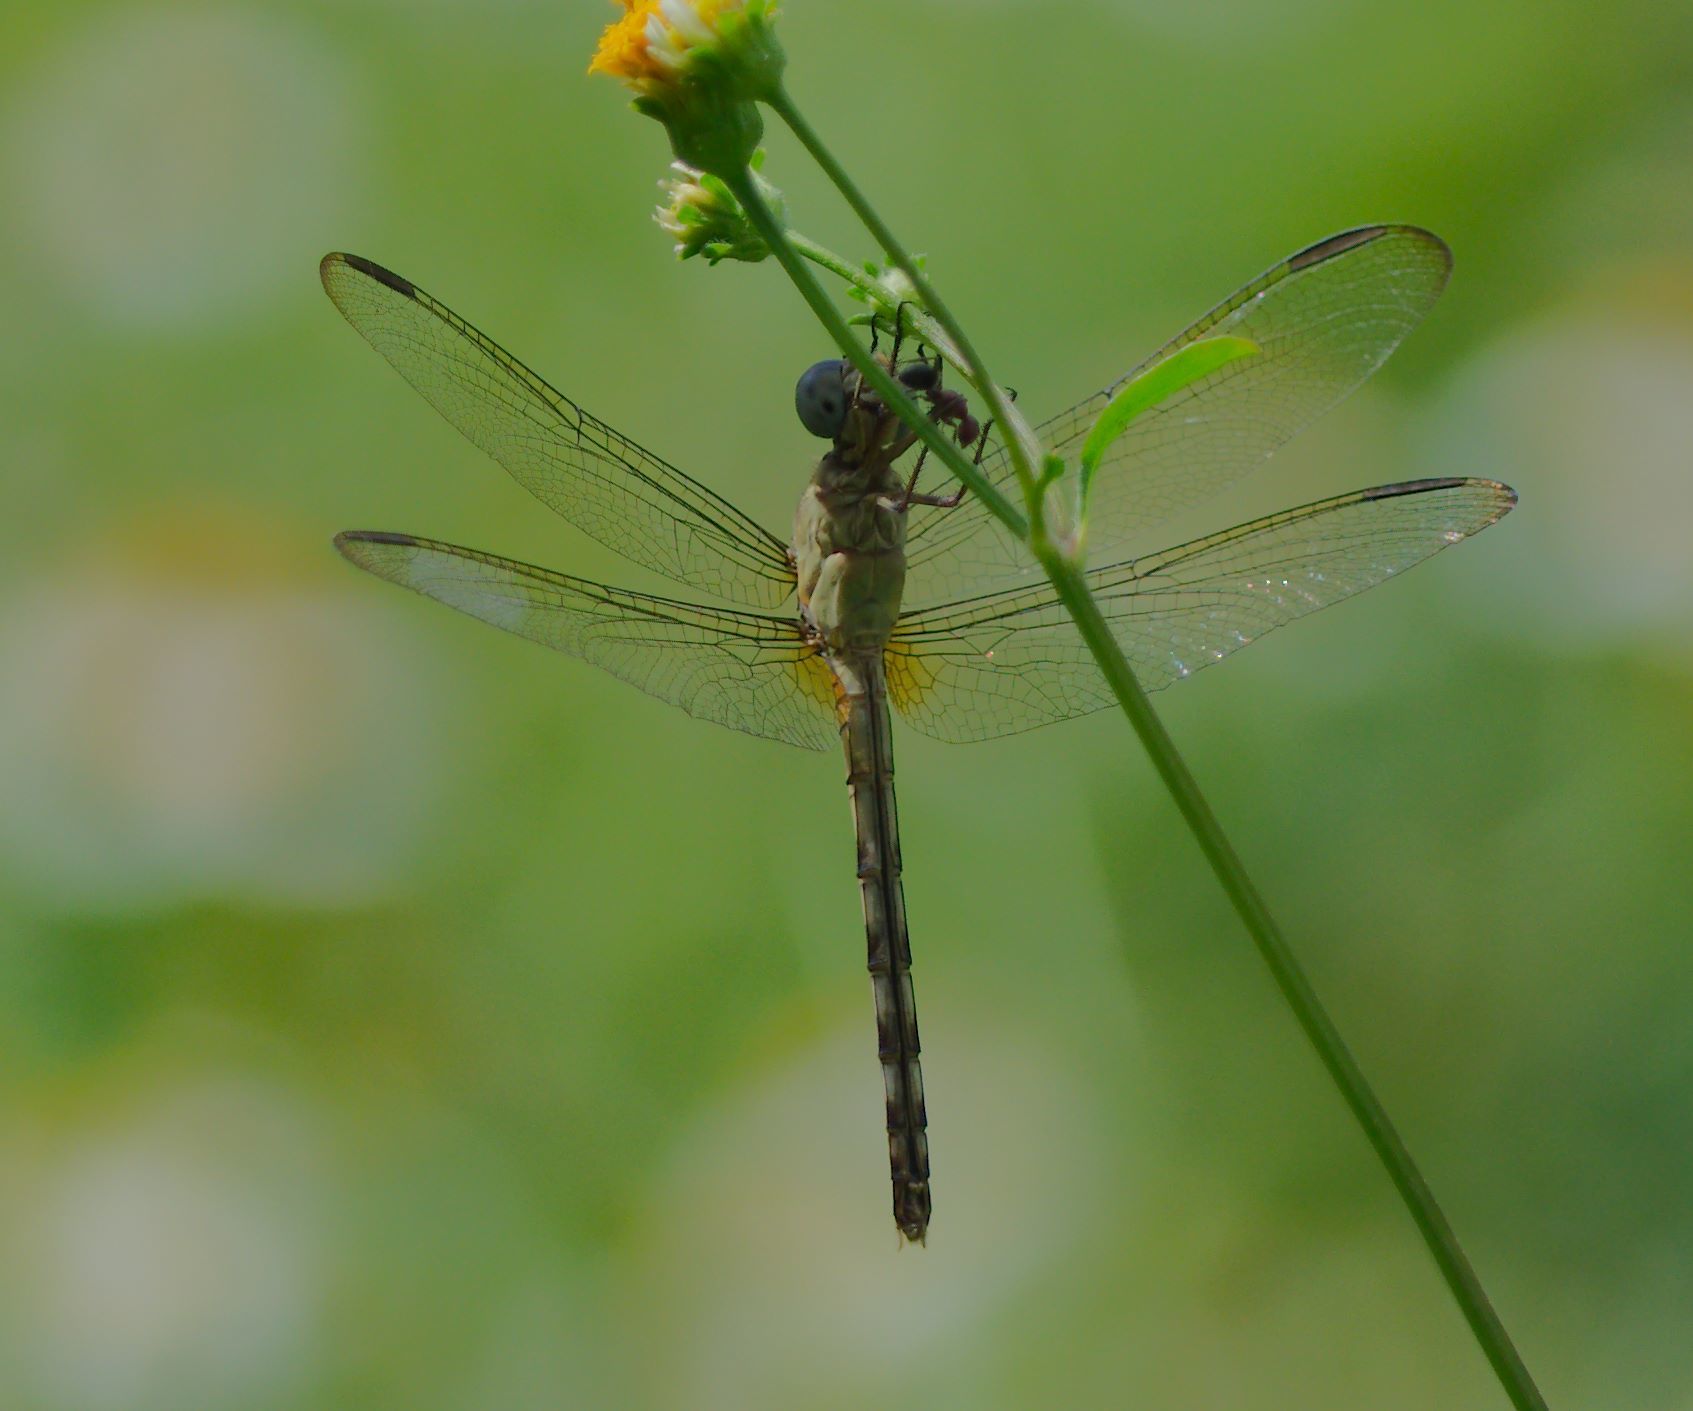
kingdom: Animalia
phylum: Arthropoda
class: Insecta
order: Odonata
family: Libellulidae
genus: Erythrodiplax
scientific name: Erythrodiplax umbrata
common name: Band-winged dragonlet
